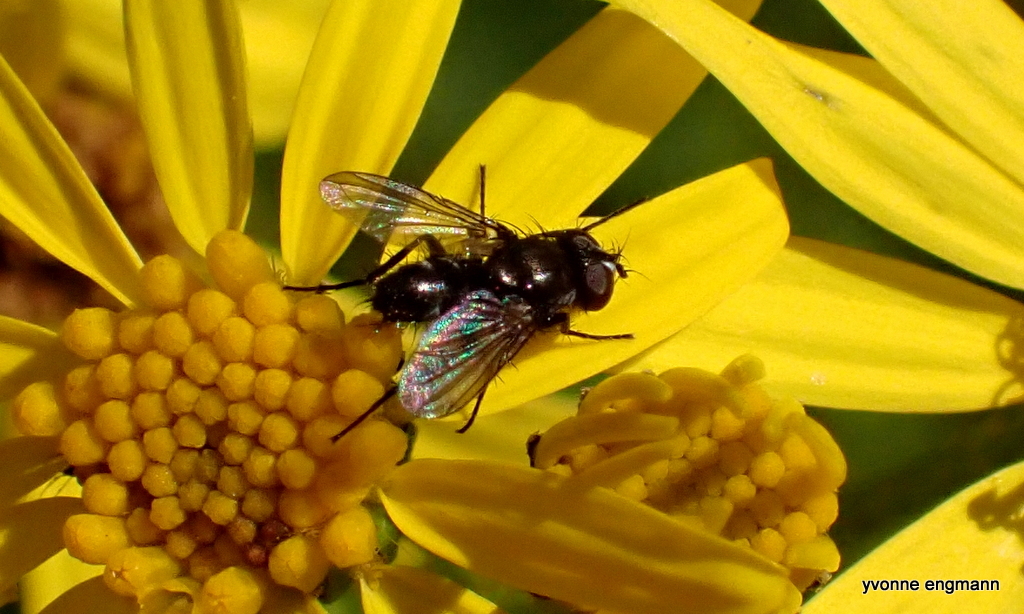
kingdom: Animalia
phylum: Arthropoda
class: Insecta
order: Diptera
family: Calliphoridae
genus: Rhinophora
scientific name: Rhinophora lepida
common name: Pouting woodlouse-fly
